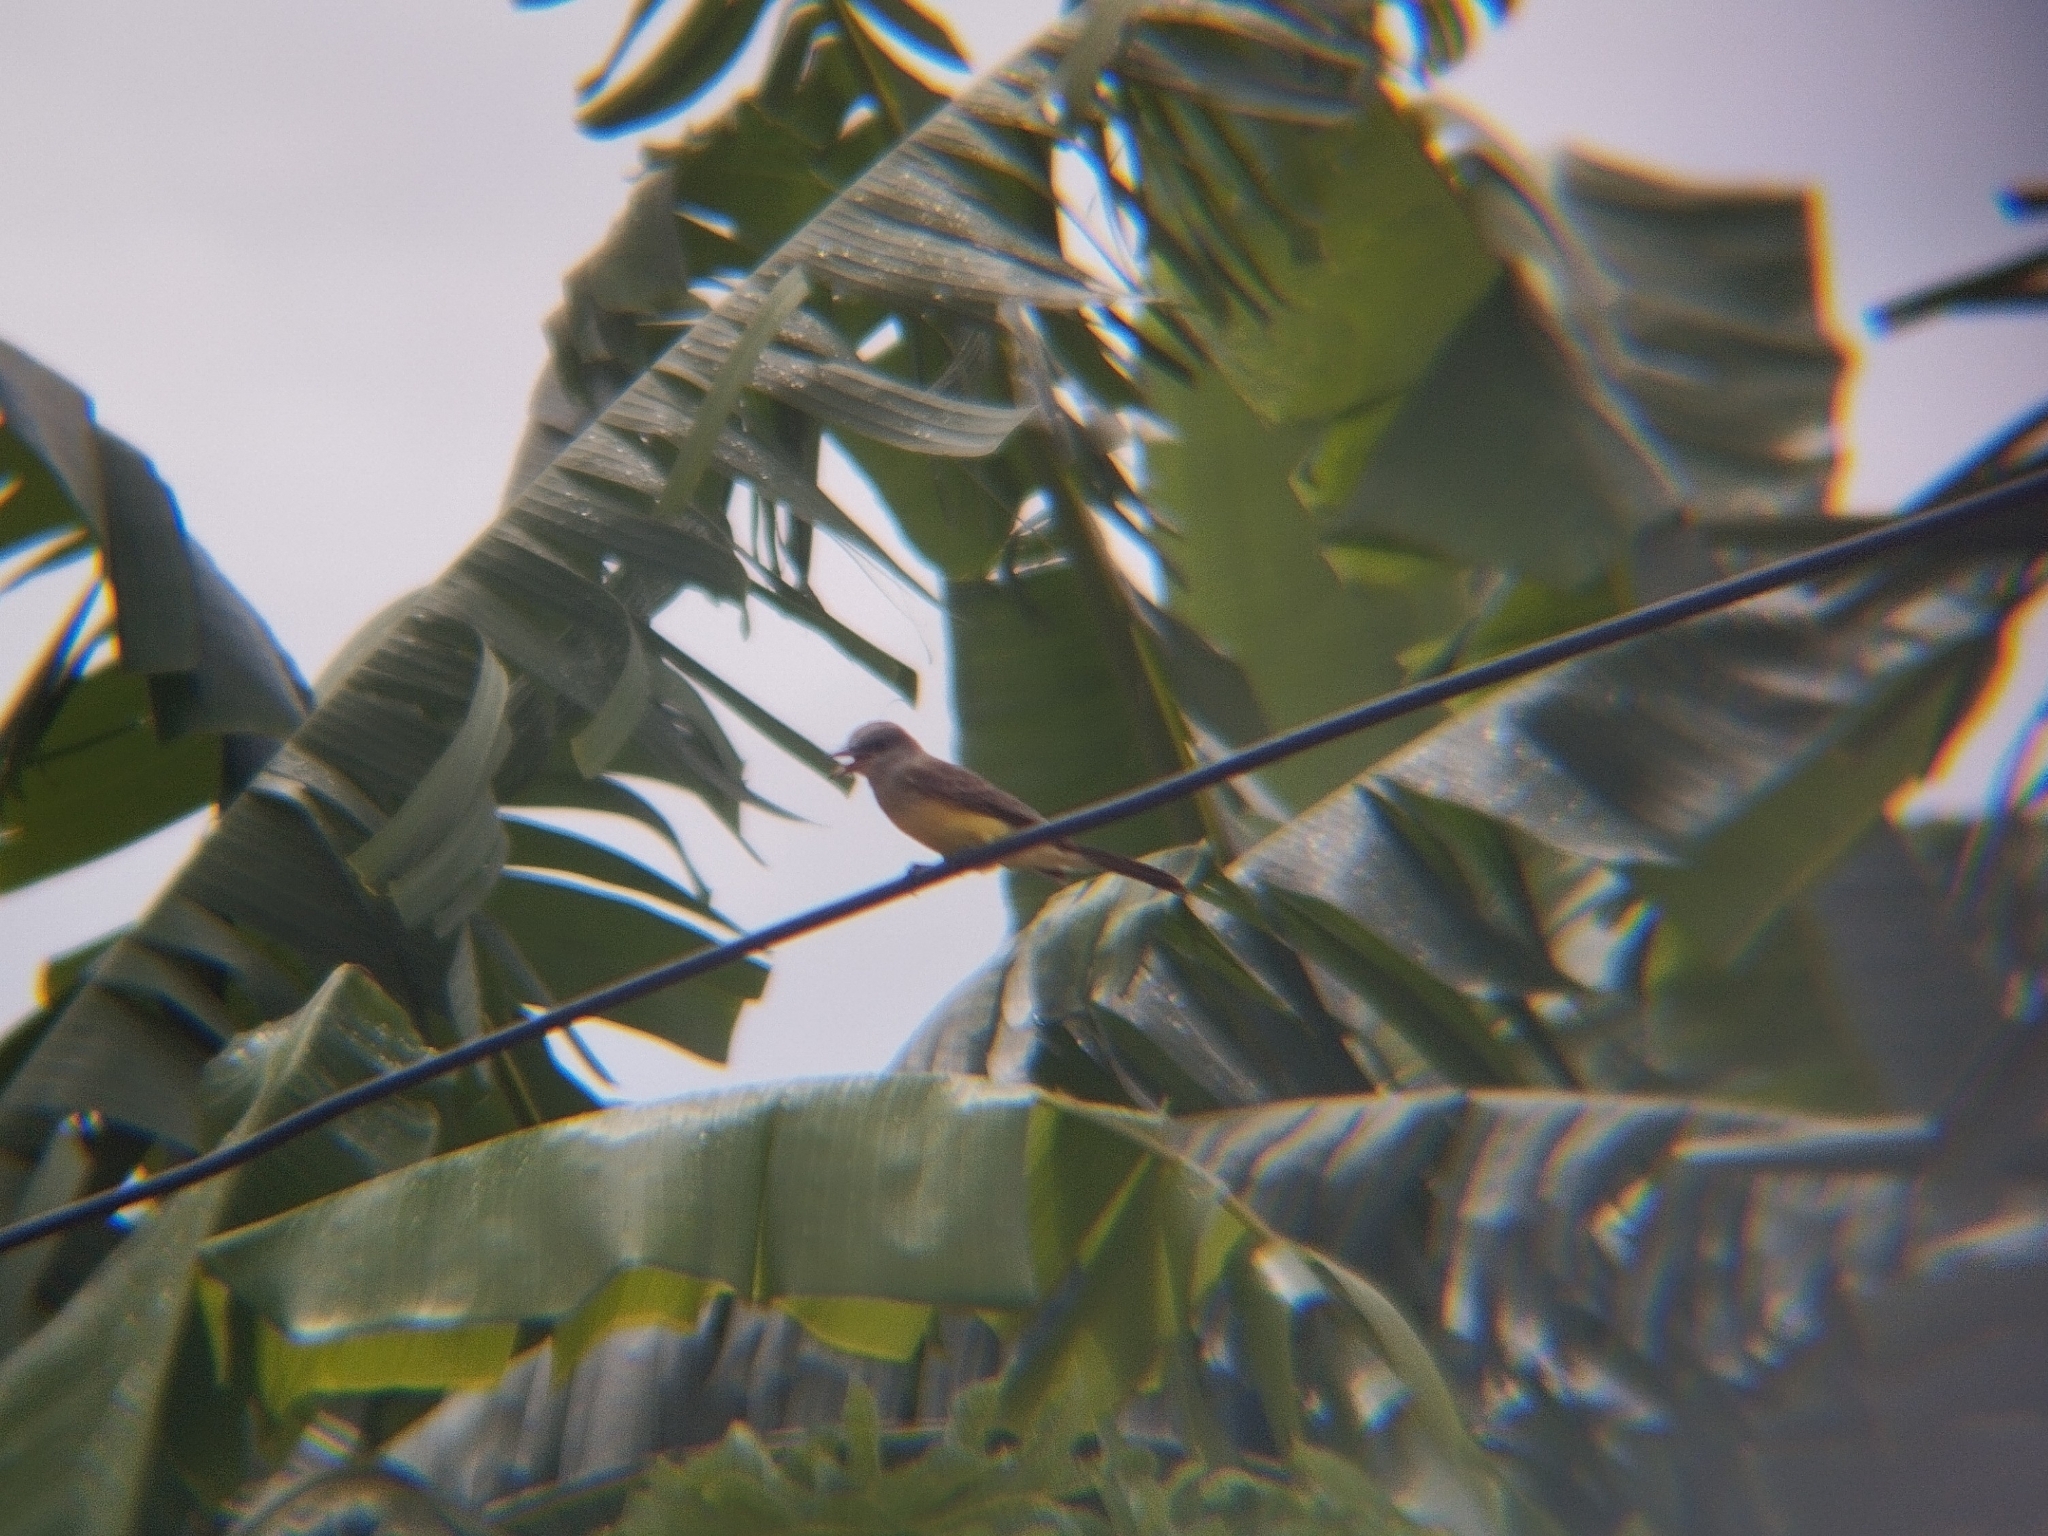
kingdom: Animalia
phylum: Chordata
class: Aves
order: Passeriformes
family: Tyrannidae
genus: Tyrannus
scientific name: Tyrannus melancholicus
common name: Tropical kingbird
